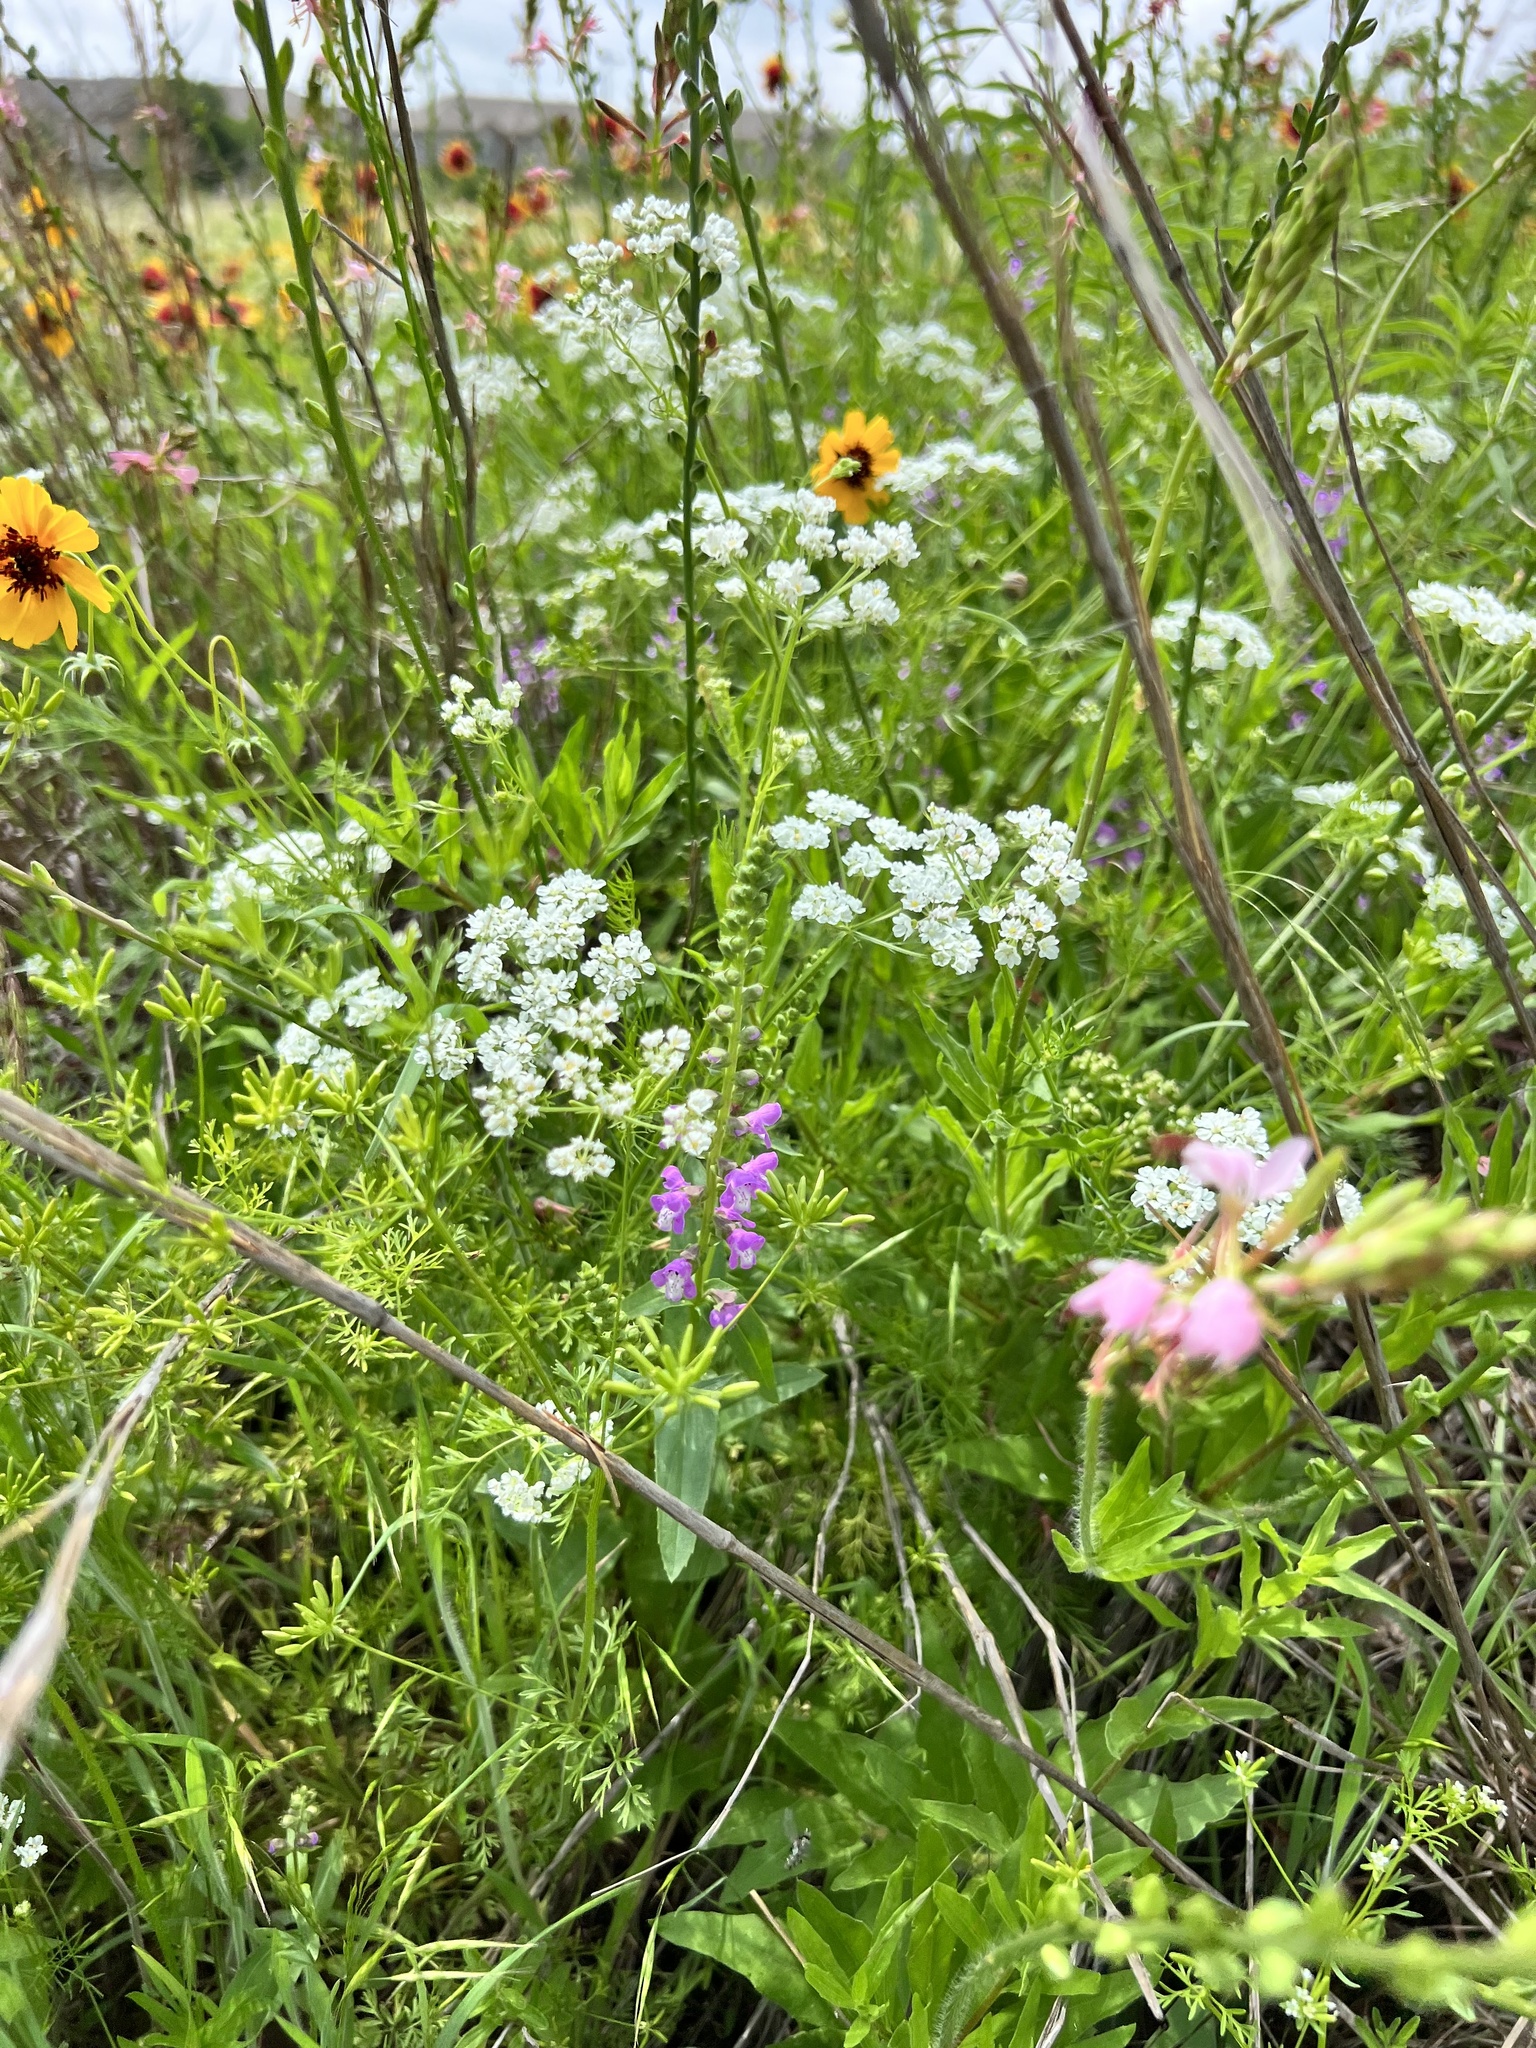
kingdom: Plantae
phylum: Tracheophyta
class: Magnoliopsida
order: Lamiales
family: Lamiaceae
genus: Warnockia
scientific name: Warnockia scutellarioides
